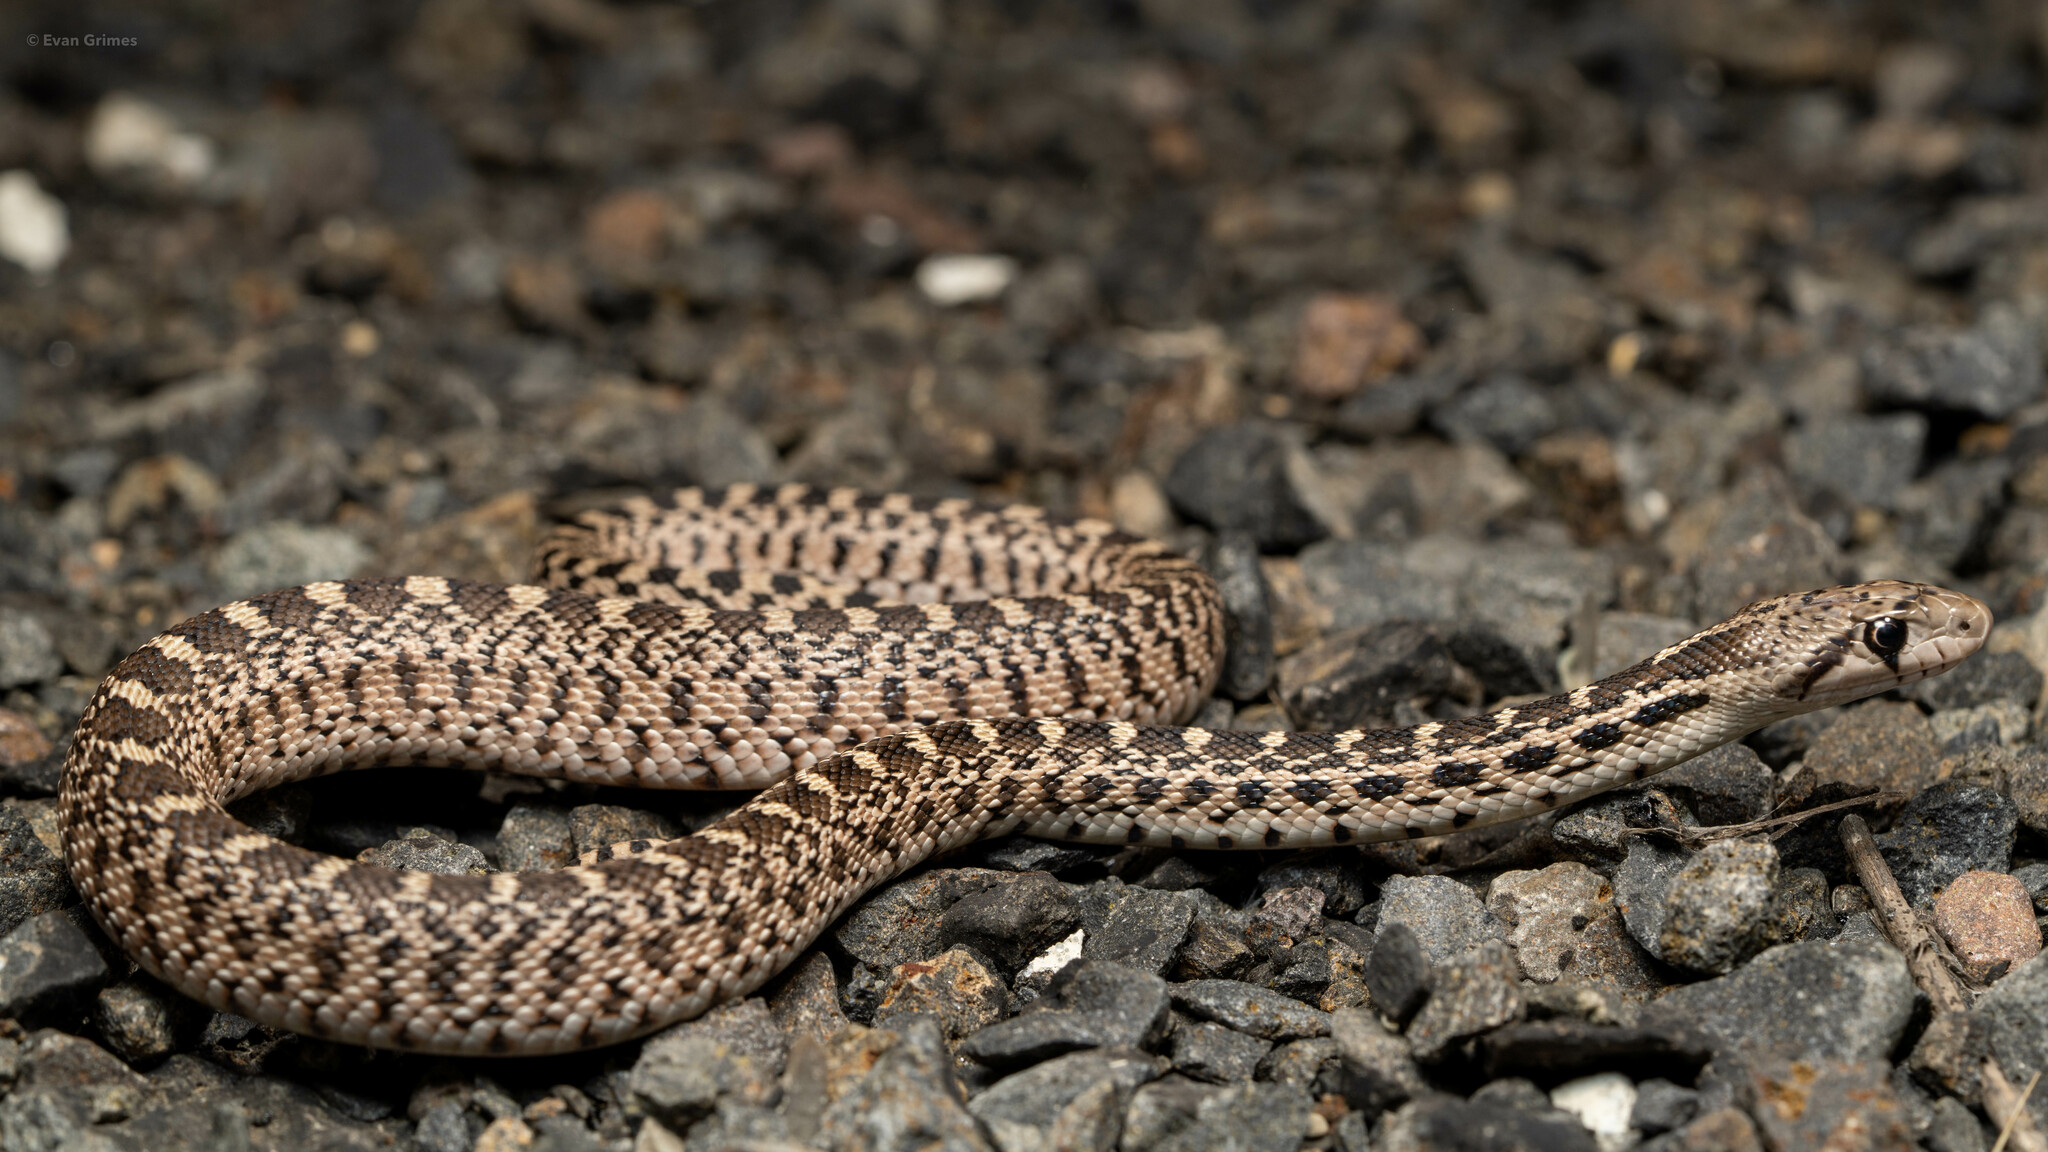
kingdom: Animalia
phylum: Chordata
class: Squamata
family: Colubridae
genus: Pituophis
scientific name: Pituophis catenifer
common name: Gopher snake
